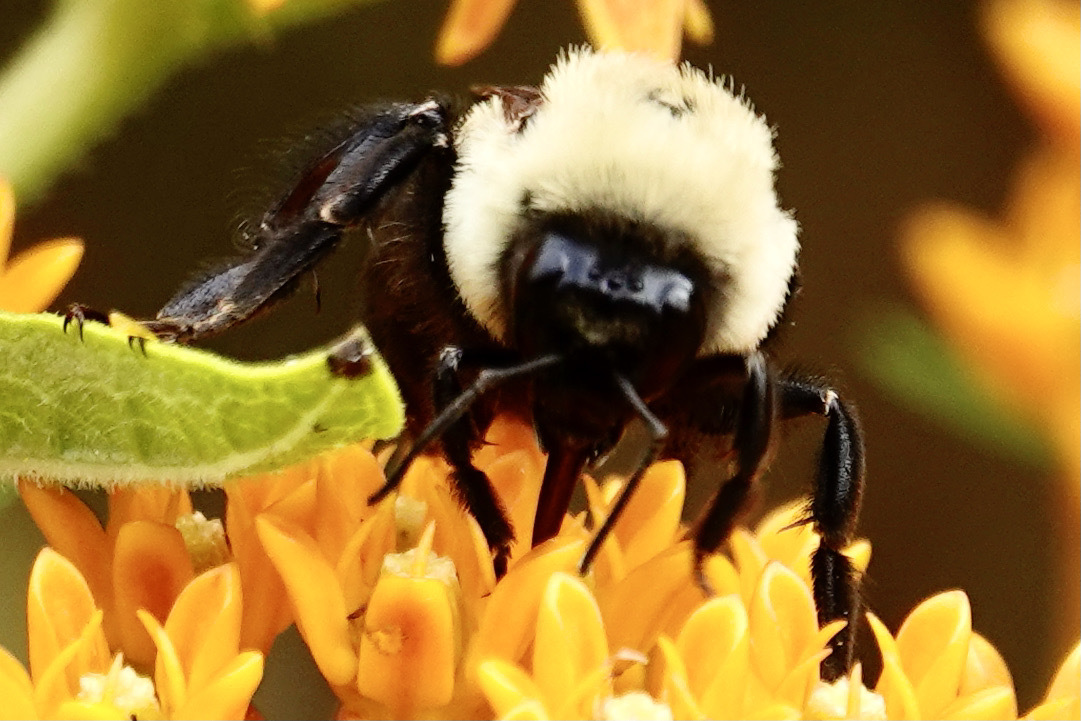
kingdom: Animalia
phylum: Arthropoda
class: Insecta
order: Hymenoptera
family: Apidae
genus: Bombus
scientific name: Bombus griseocollis
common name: Brown-belted bumble bee
